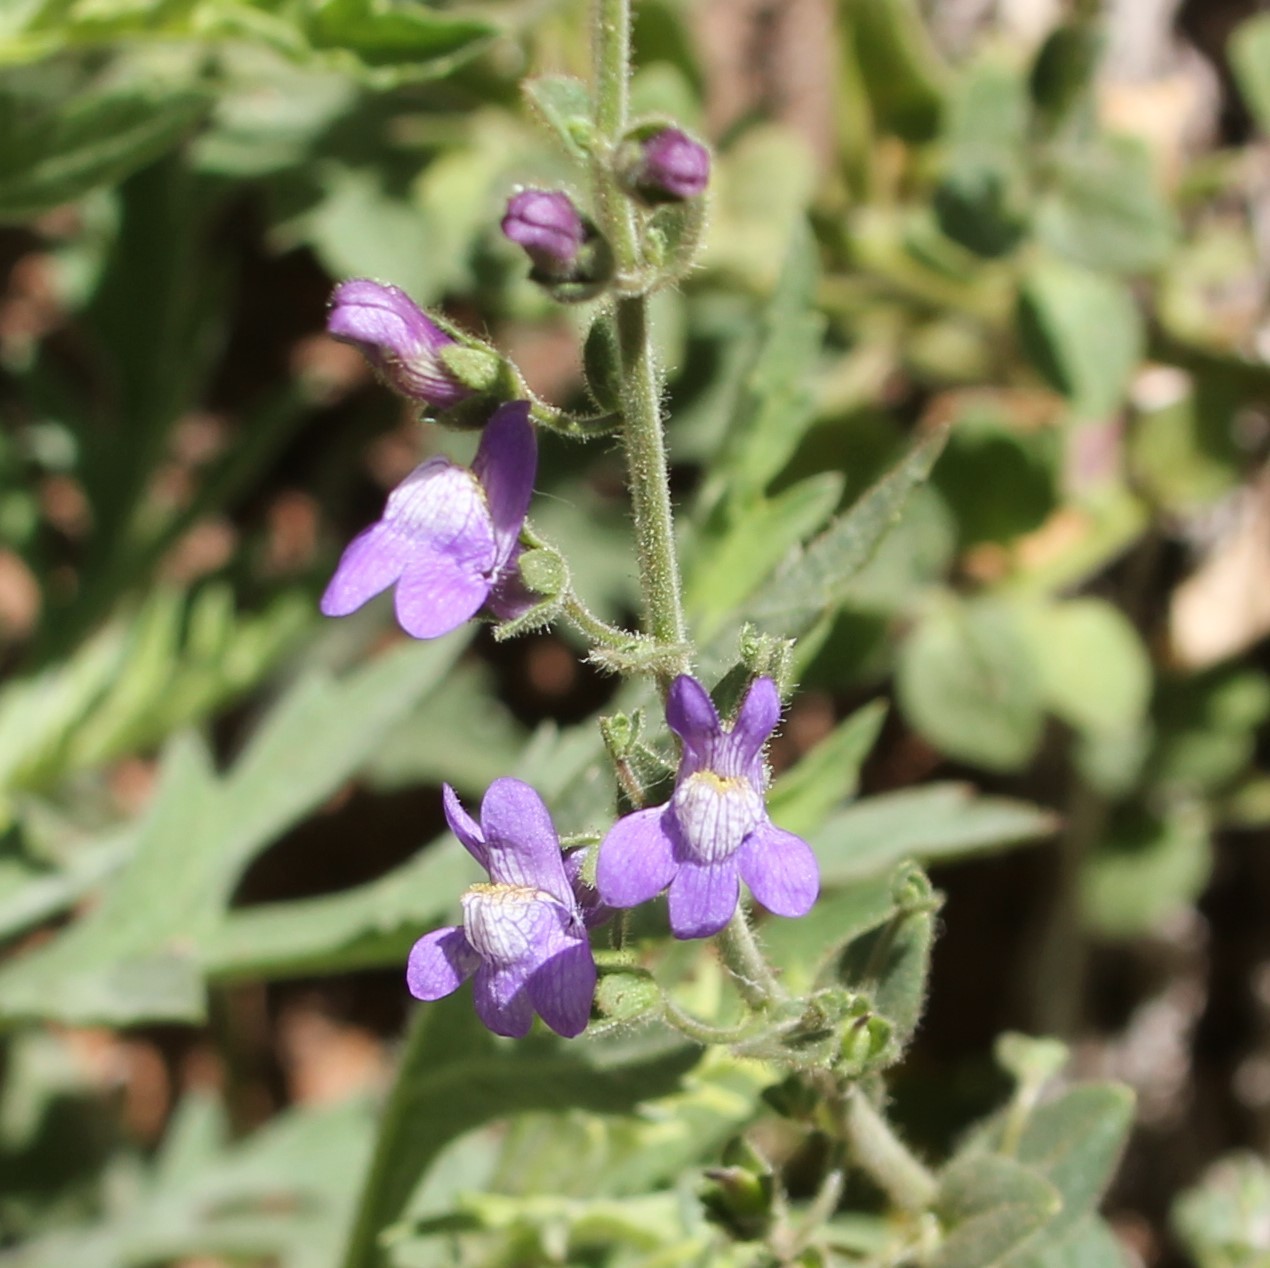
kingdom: Plantae
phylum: Tracheophyta
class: Magnoliopsida
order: Lamiales
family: Plantaginaceae
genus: Sairocarpus
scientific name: Sairocarpus nuttallianus
